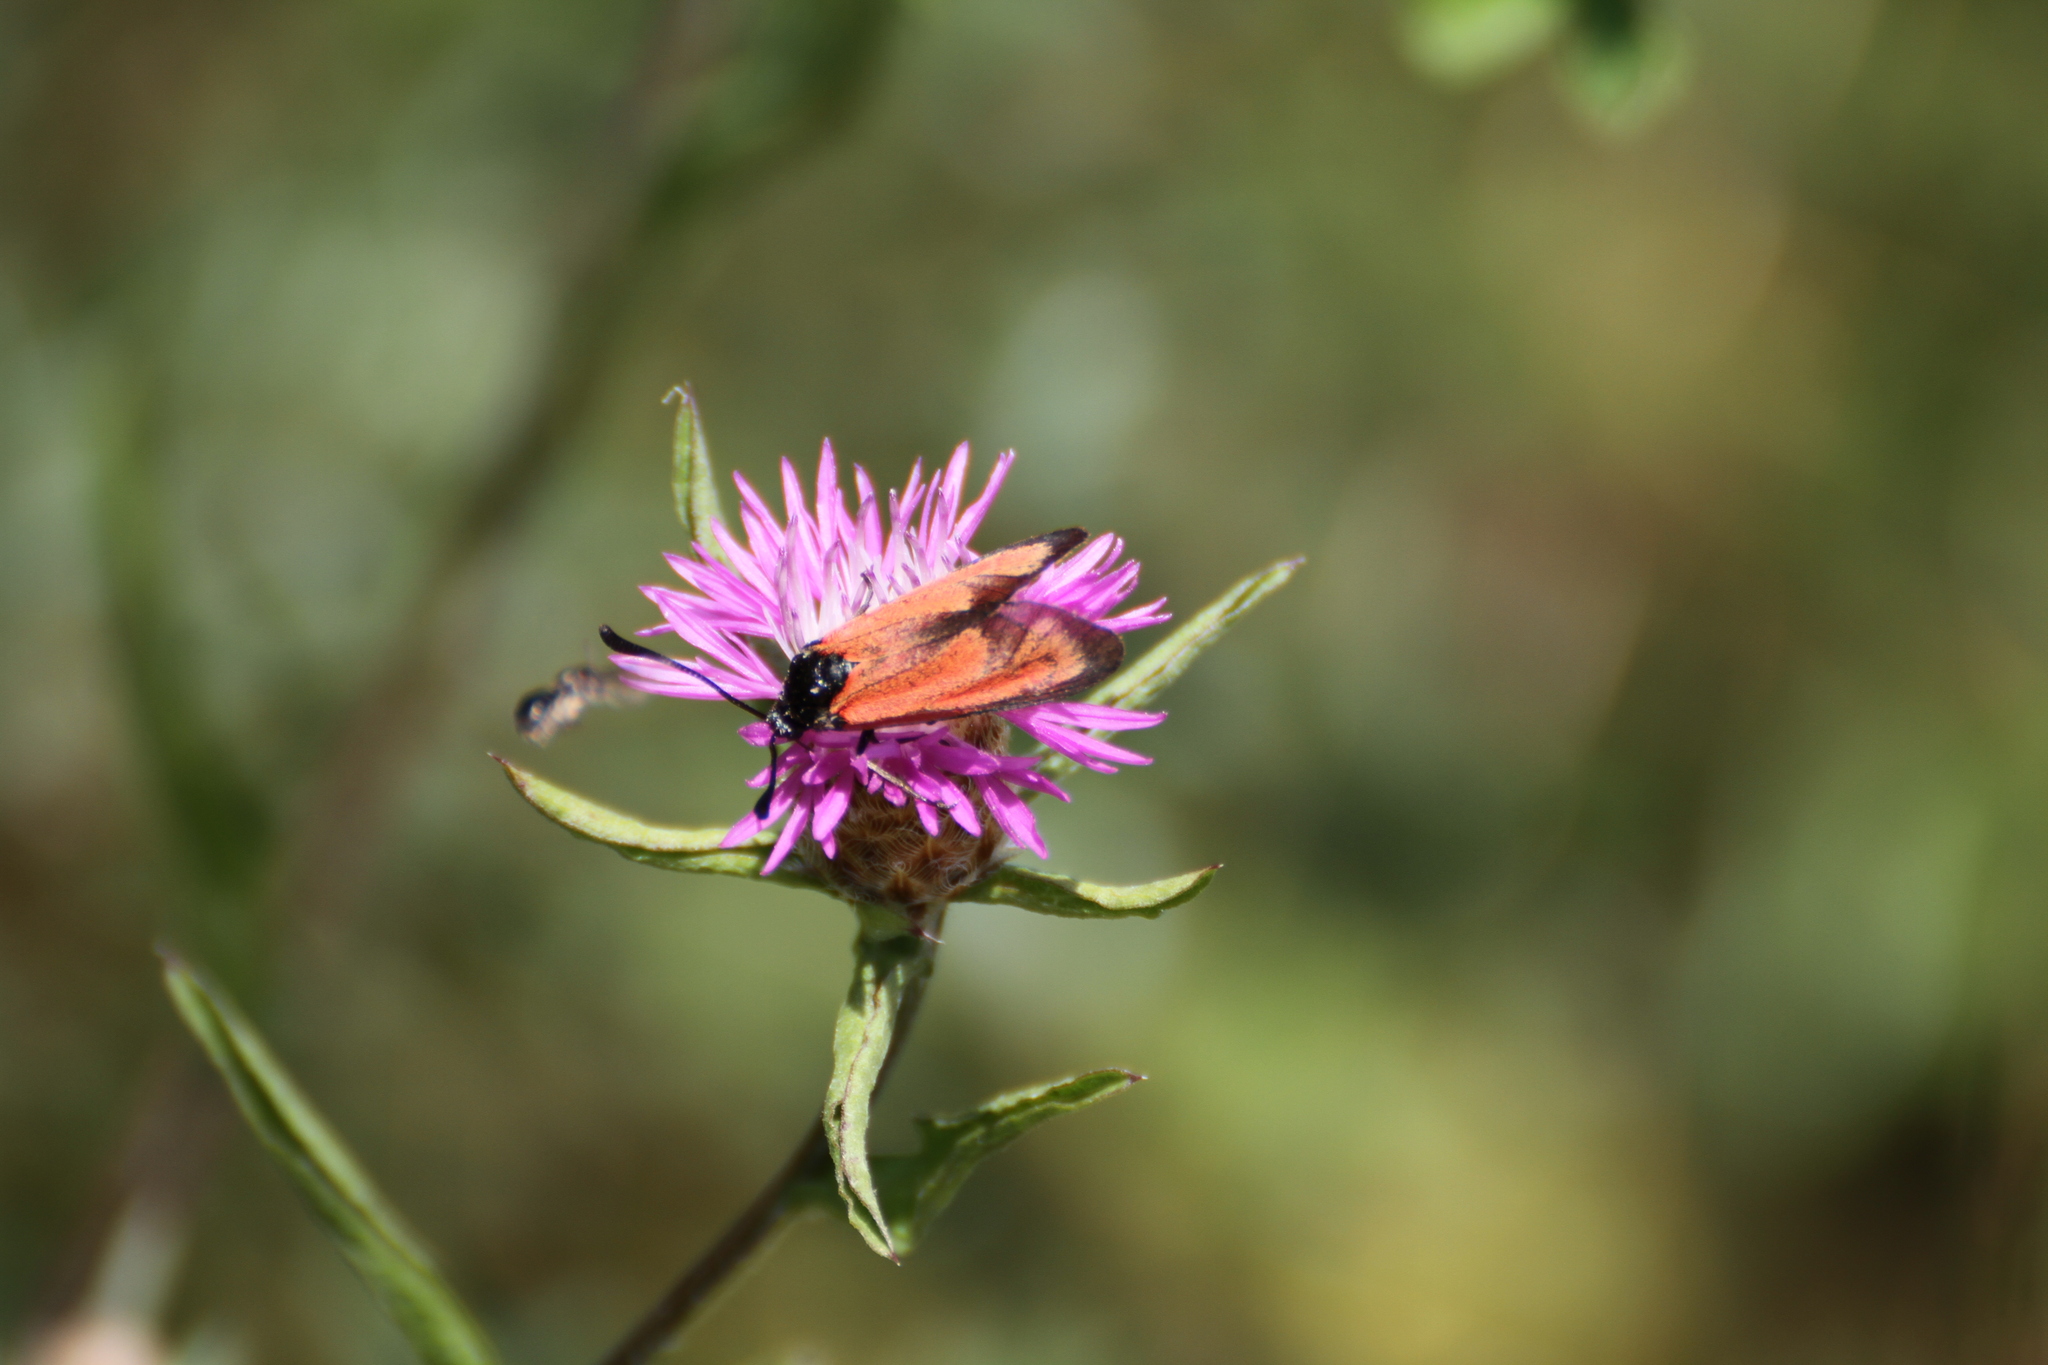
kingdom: Animalia
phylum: Arthropoda
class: Insecta
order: Lepidoptera
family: Zygaenidae
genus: Zygaena
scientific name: Zygaena erythrus
